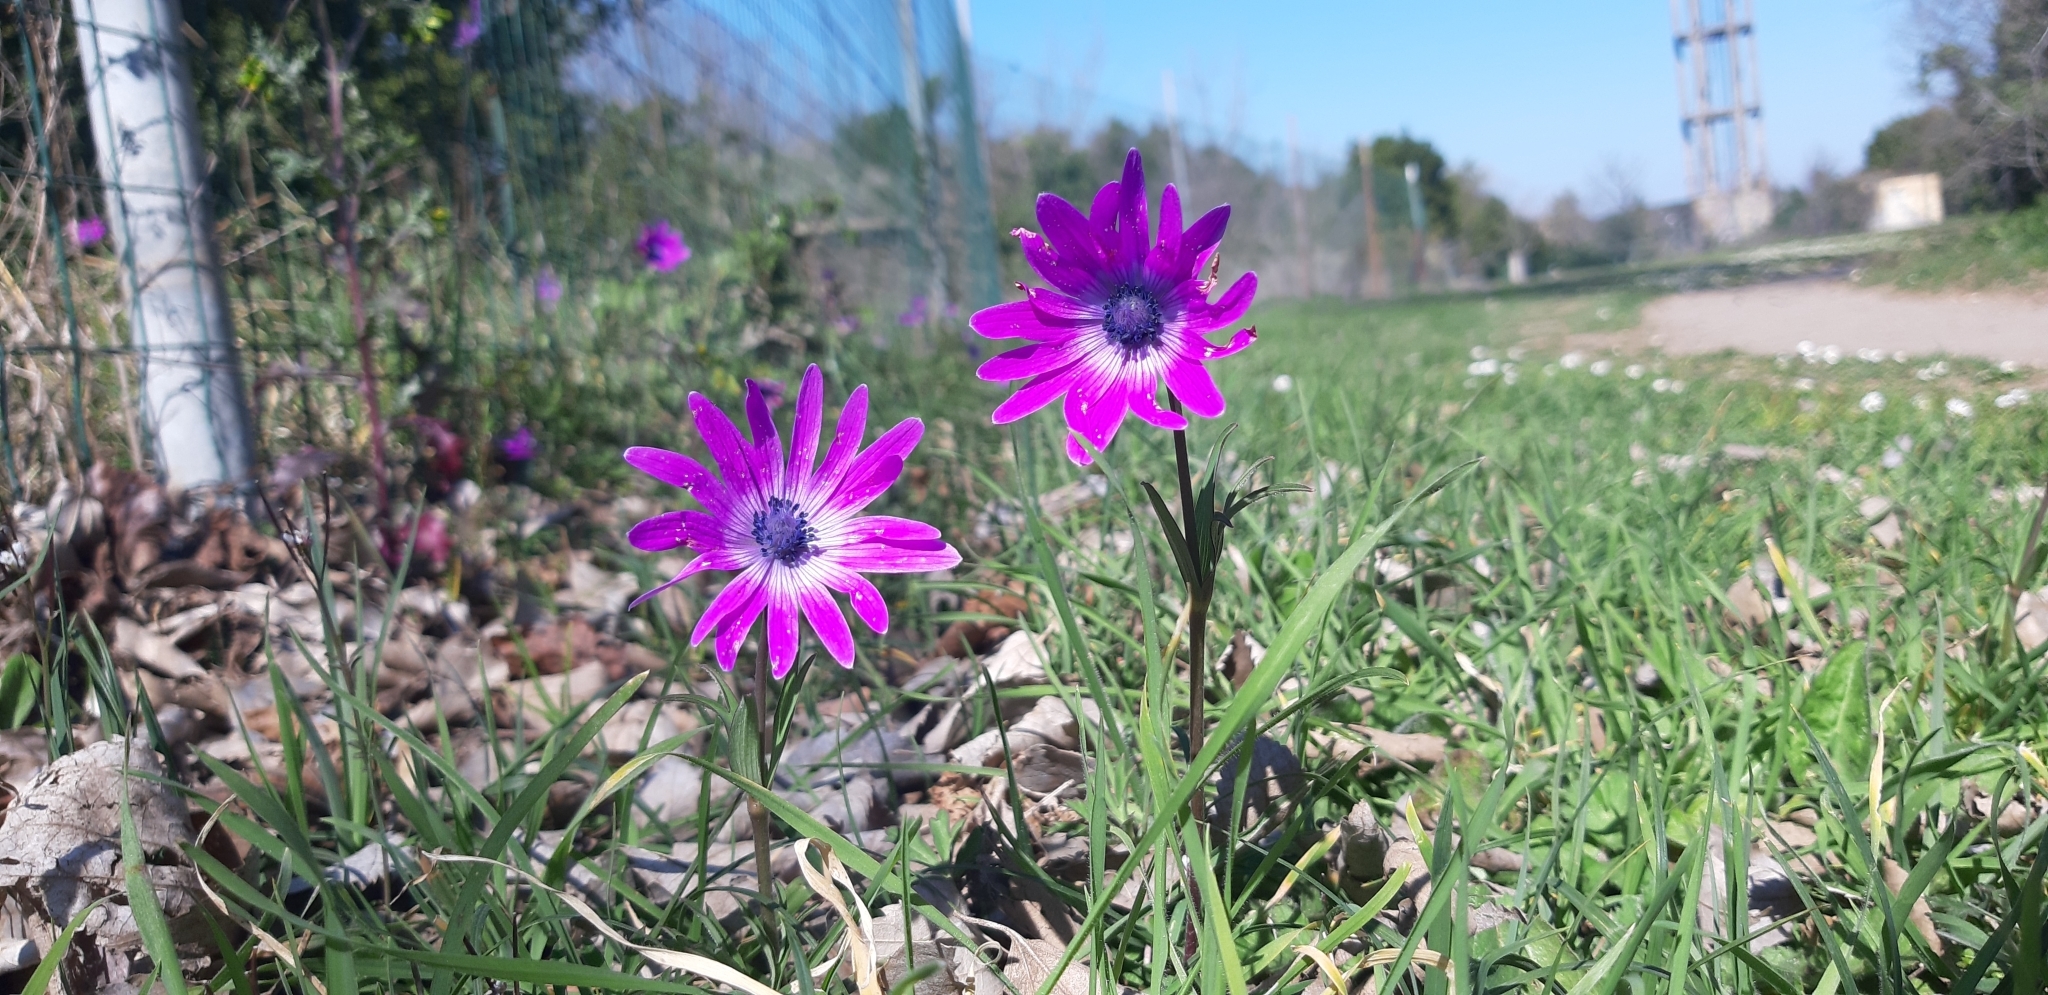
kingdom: Plantae
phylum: Tracheophyta
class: Magnoliopsida
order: Ranunculales
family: Ranunculaceae
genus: Anemone
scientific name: Anemone hortensis
